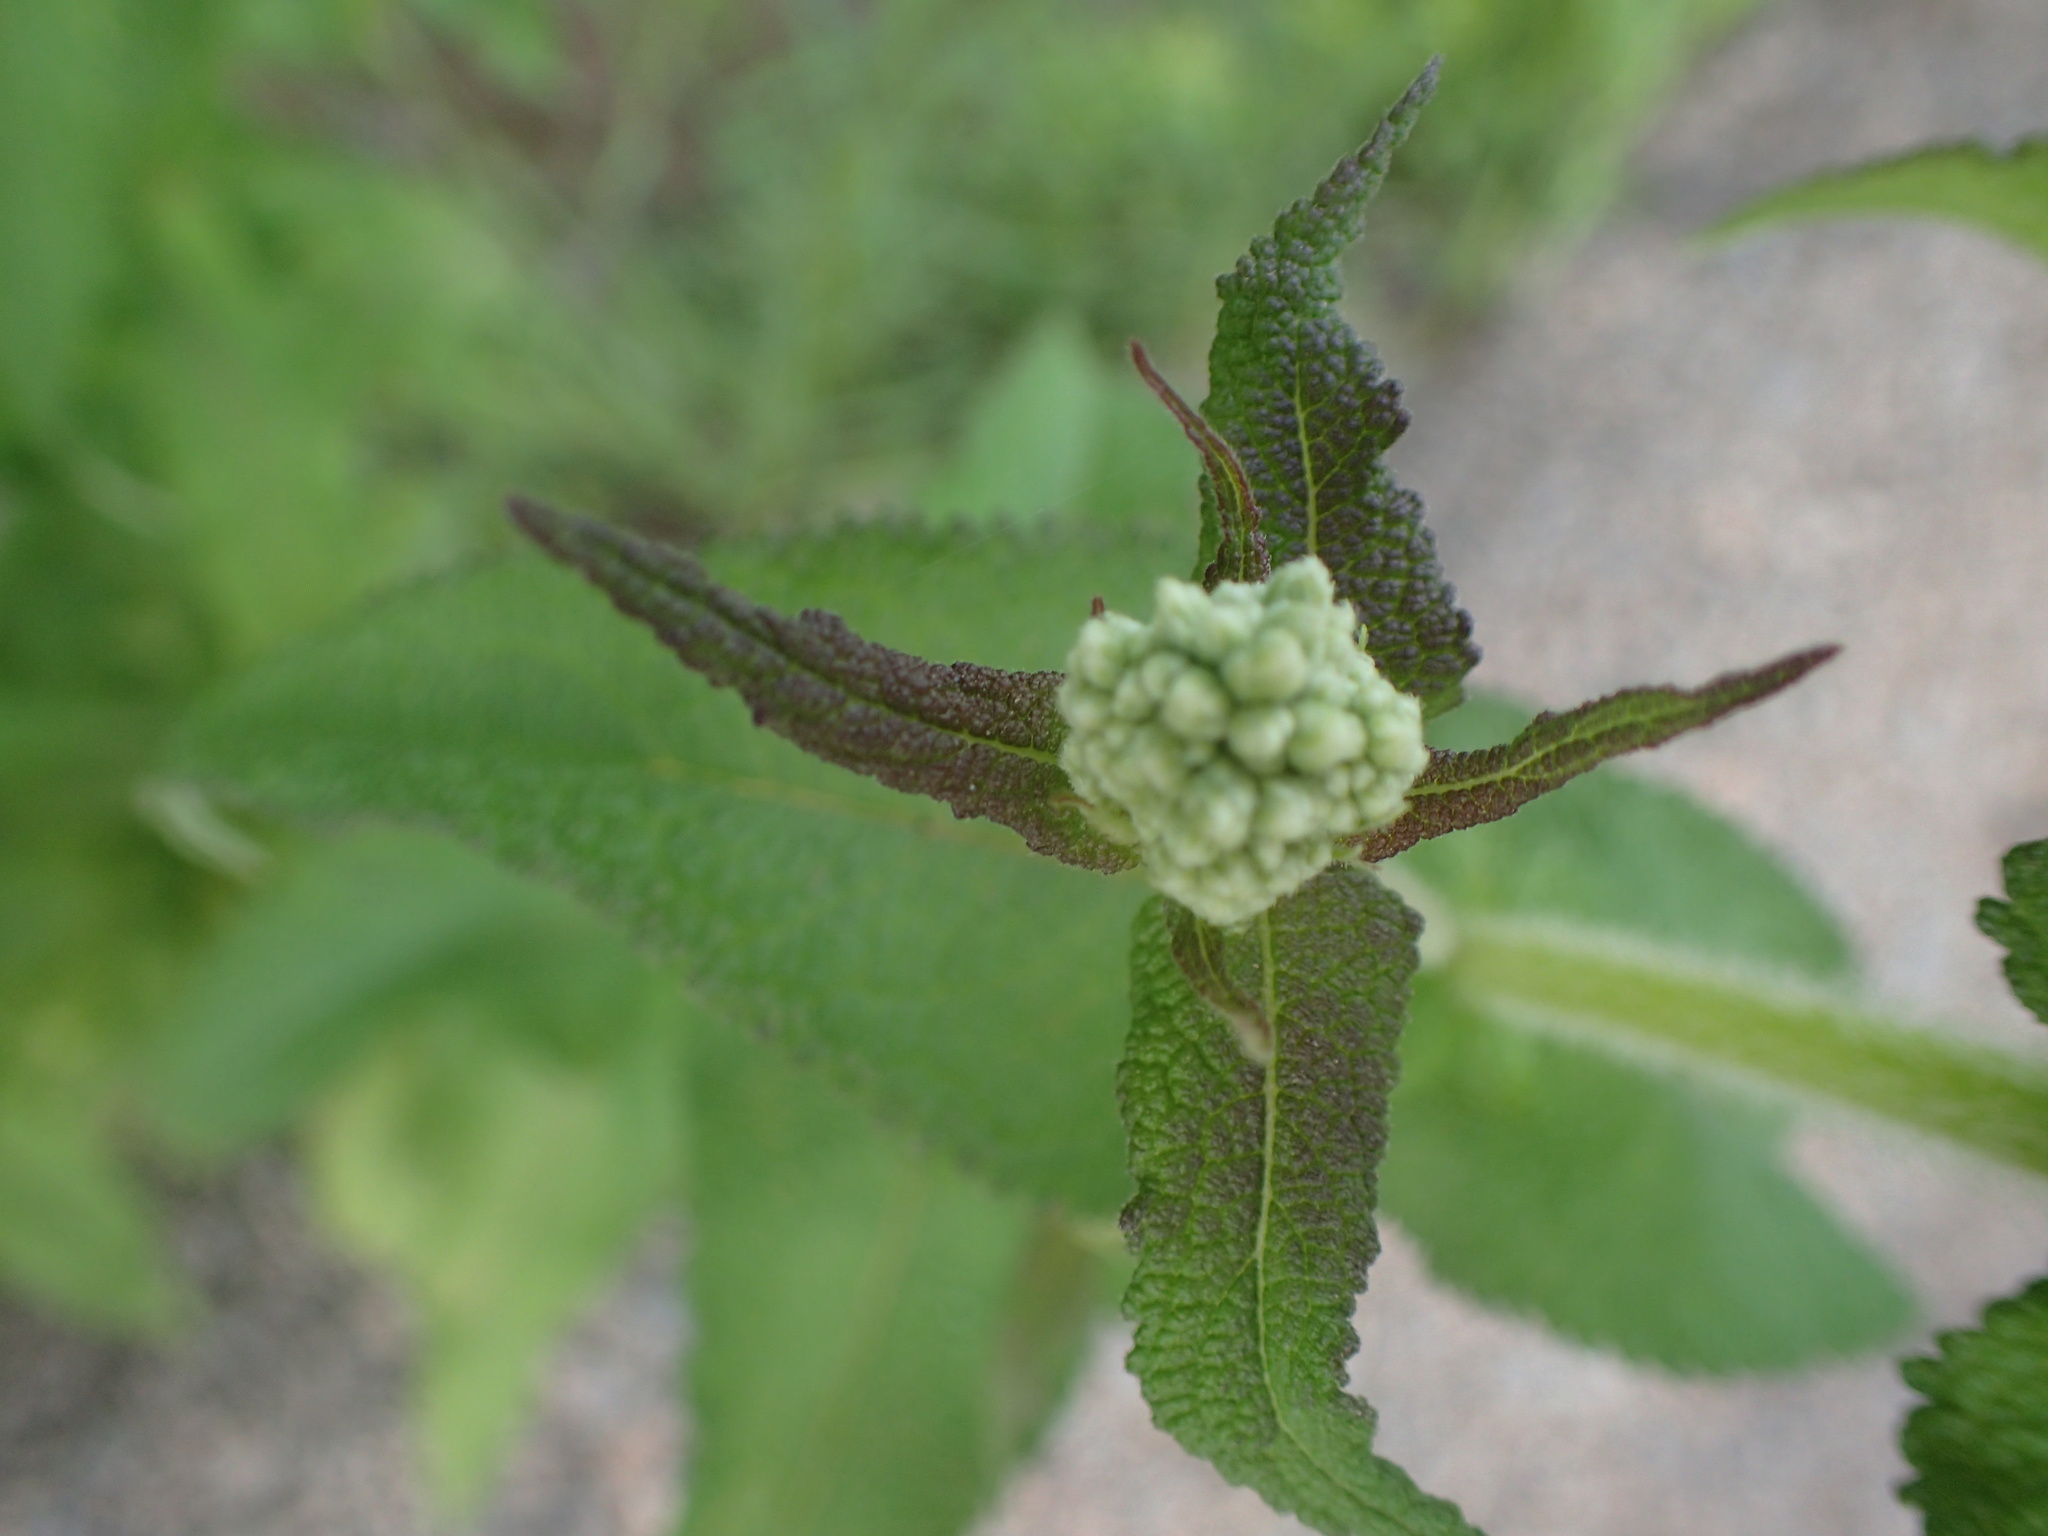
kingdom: Plantae
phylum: Tracheophyta
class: Magnoliopsida
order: Asterales
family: Asteraceae
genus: Eupatorium
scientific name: Eupatorium perfoliatum
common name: Boneset
